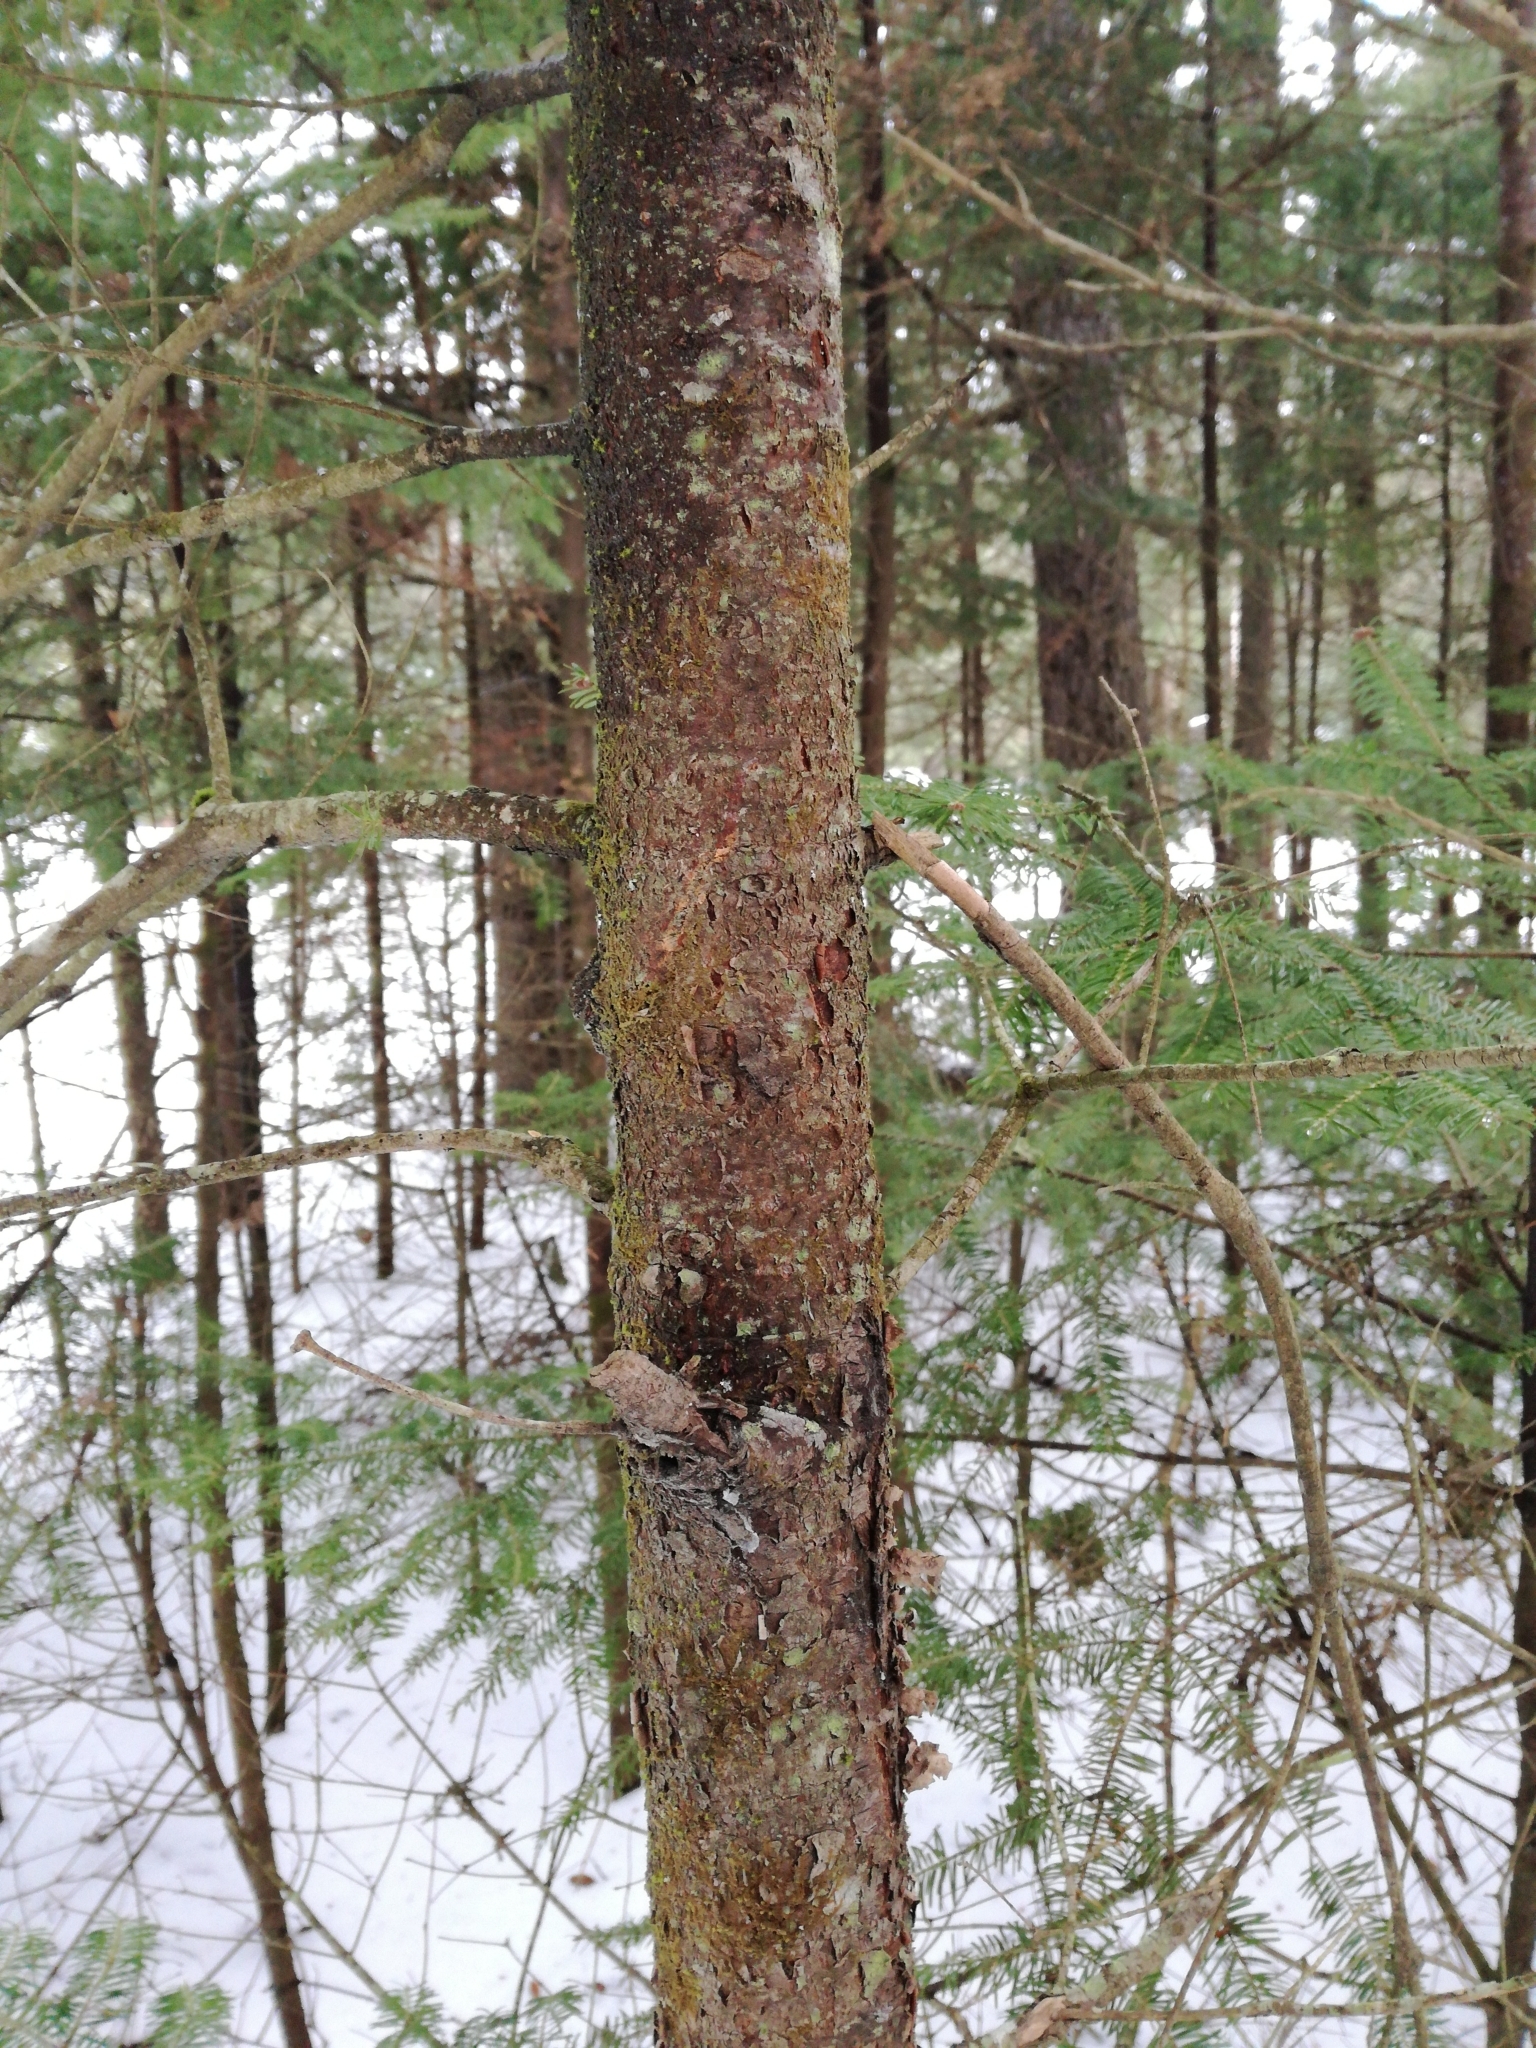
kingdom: Plantae
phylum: Tracheophyta
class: Pinopsida
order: Pinales
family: Pinaceae
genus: Abies
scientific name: Abies balsamea
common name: Balsam fir
